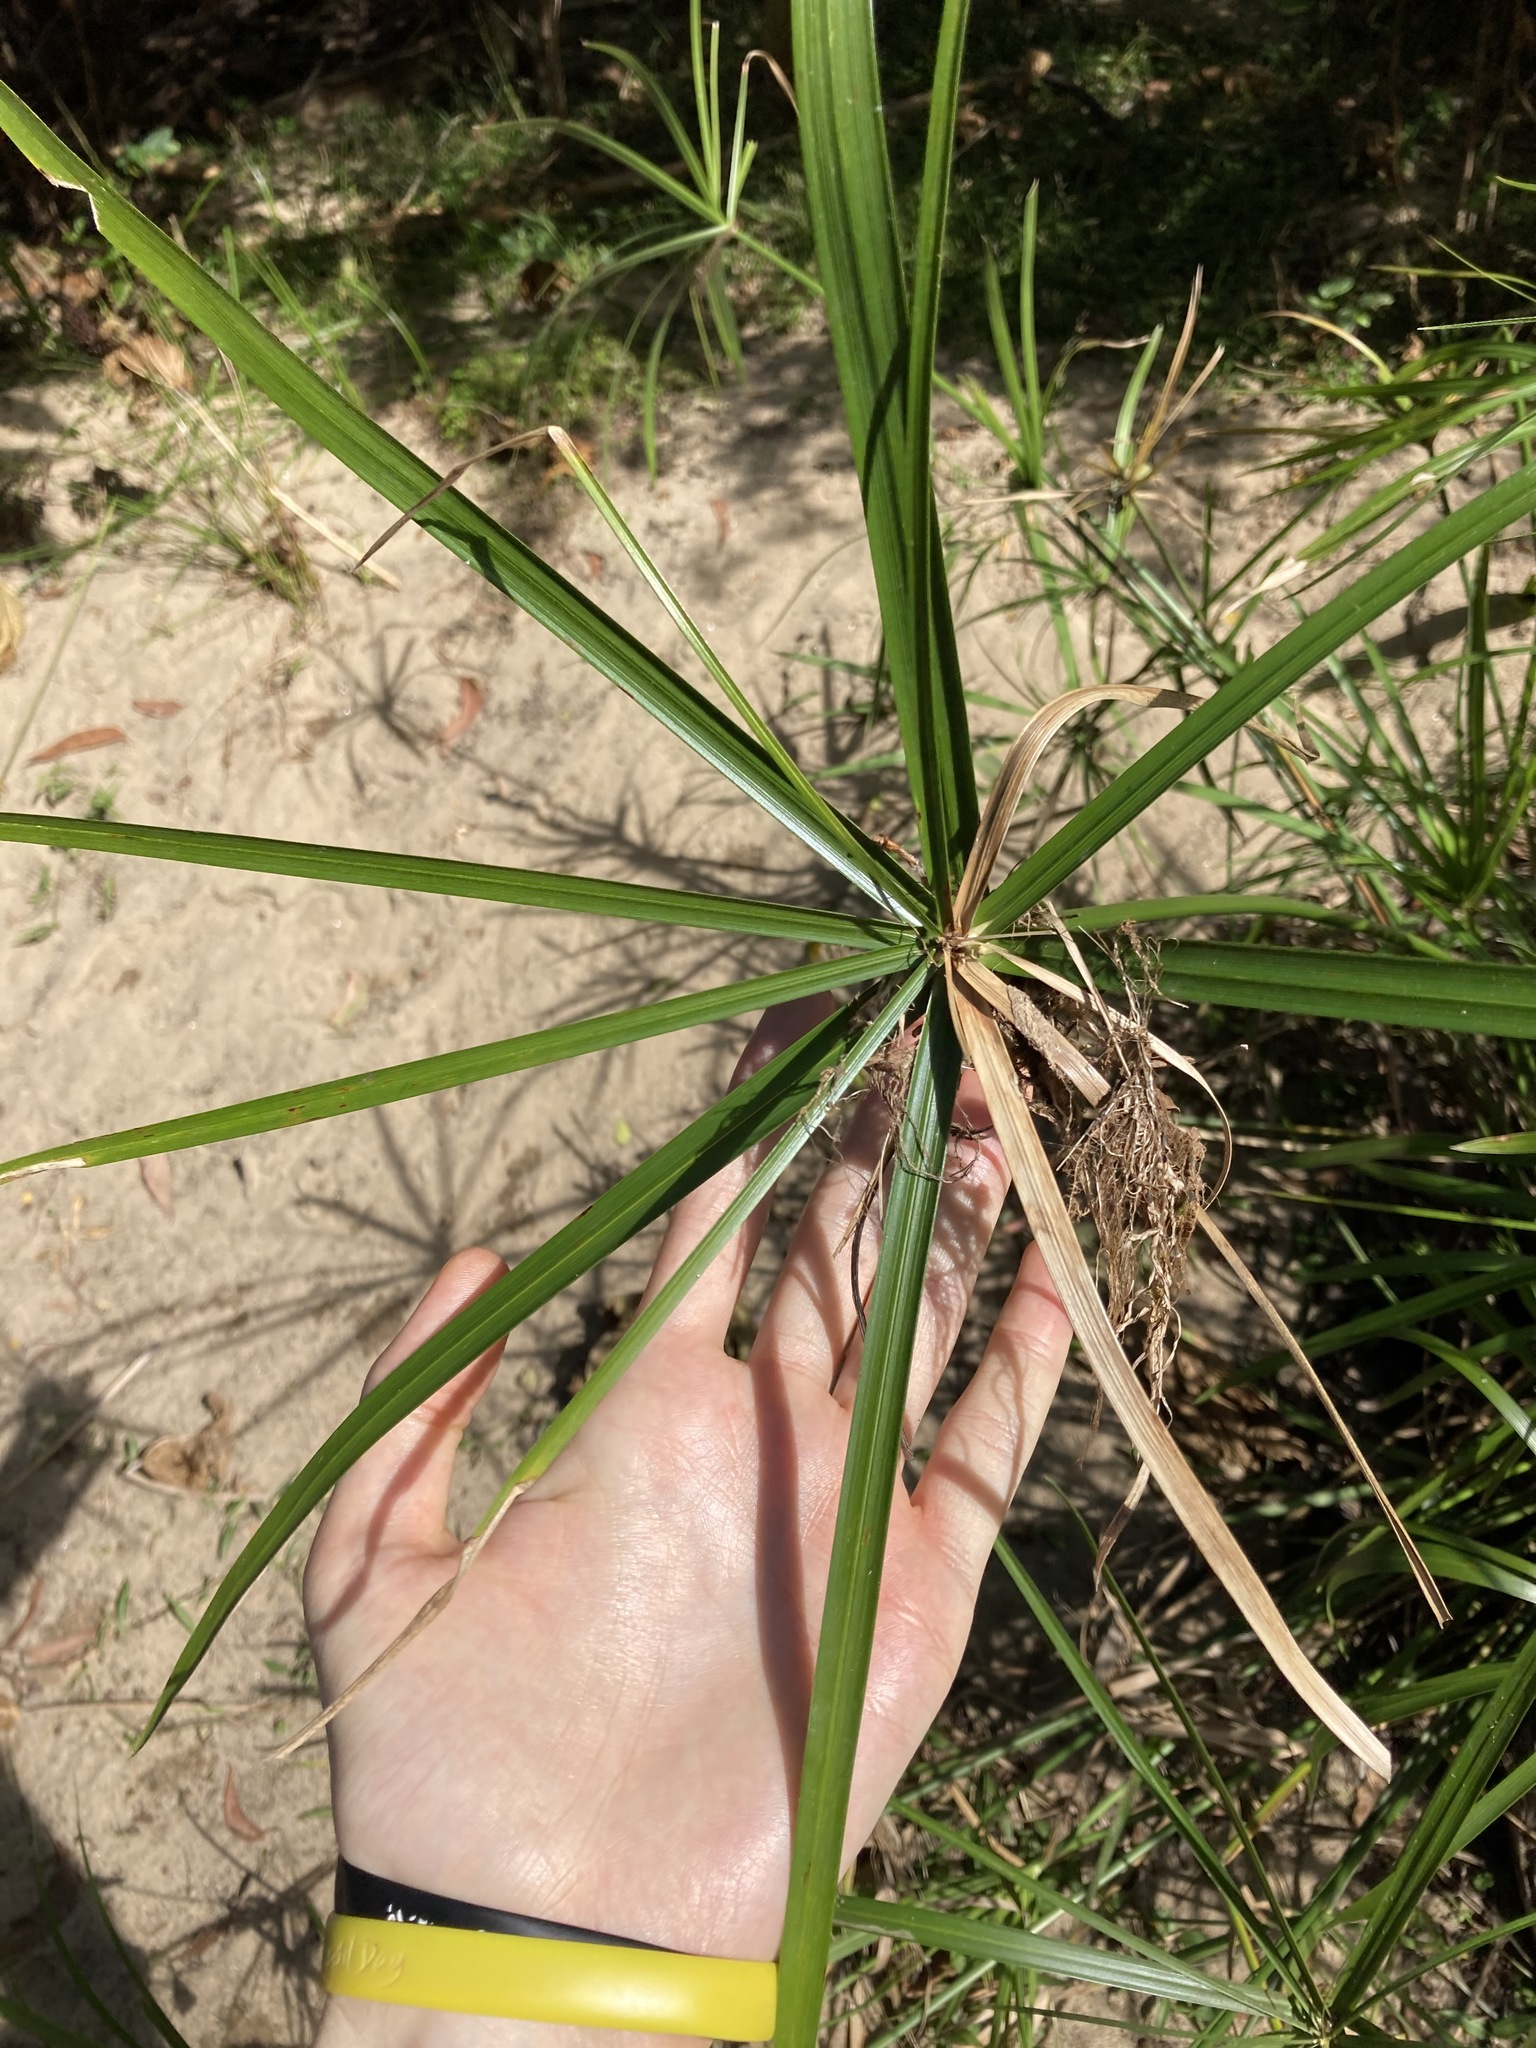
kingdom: Plantae
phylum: Tracheophyta
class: Liliopsida
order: Poales
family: Cyperaceae
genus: Cyperus
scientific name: Cyperus alternifolius
